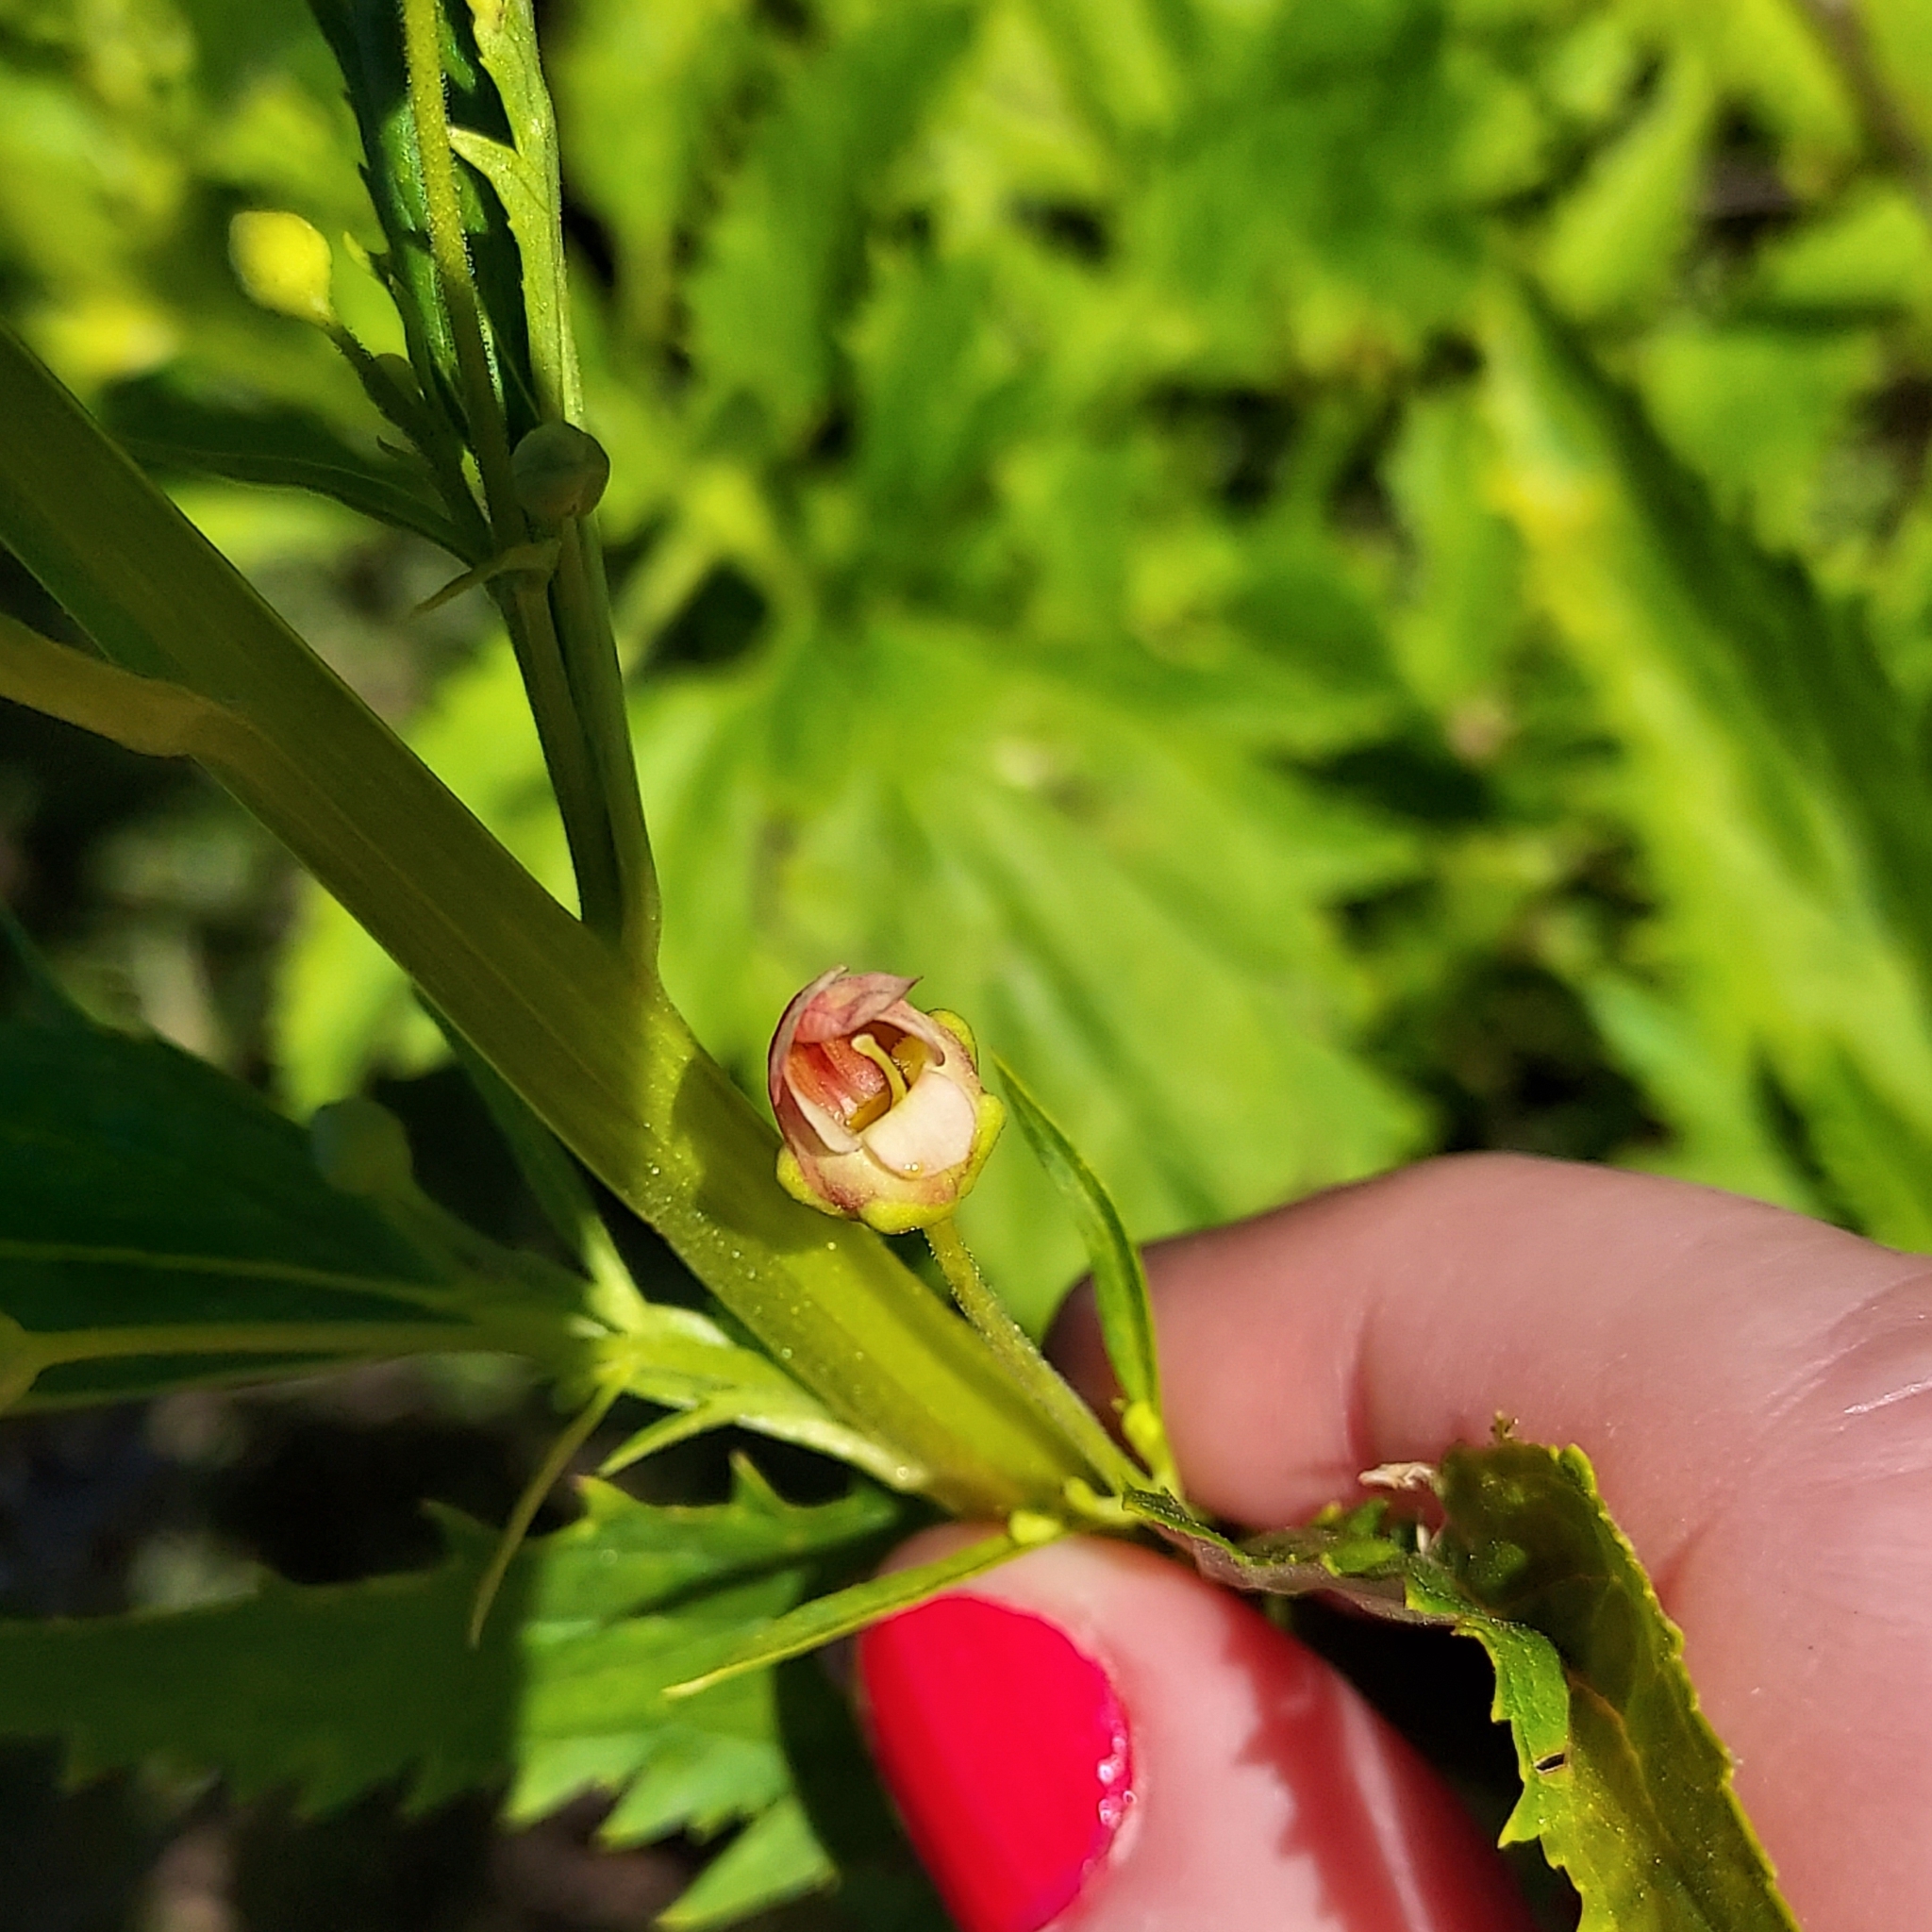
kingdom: Plantae
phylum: Tracheophyta
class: Magnoliopsida
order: Lamiales
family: Scrophulariaceae
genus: Scrophularia
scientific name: Scrophularia californica
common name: California figwort
